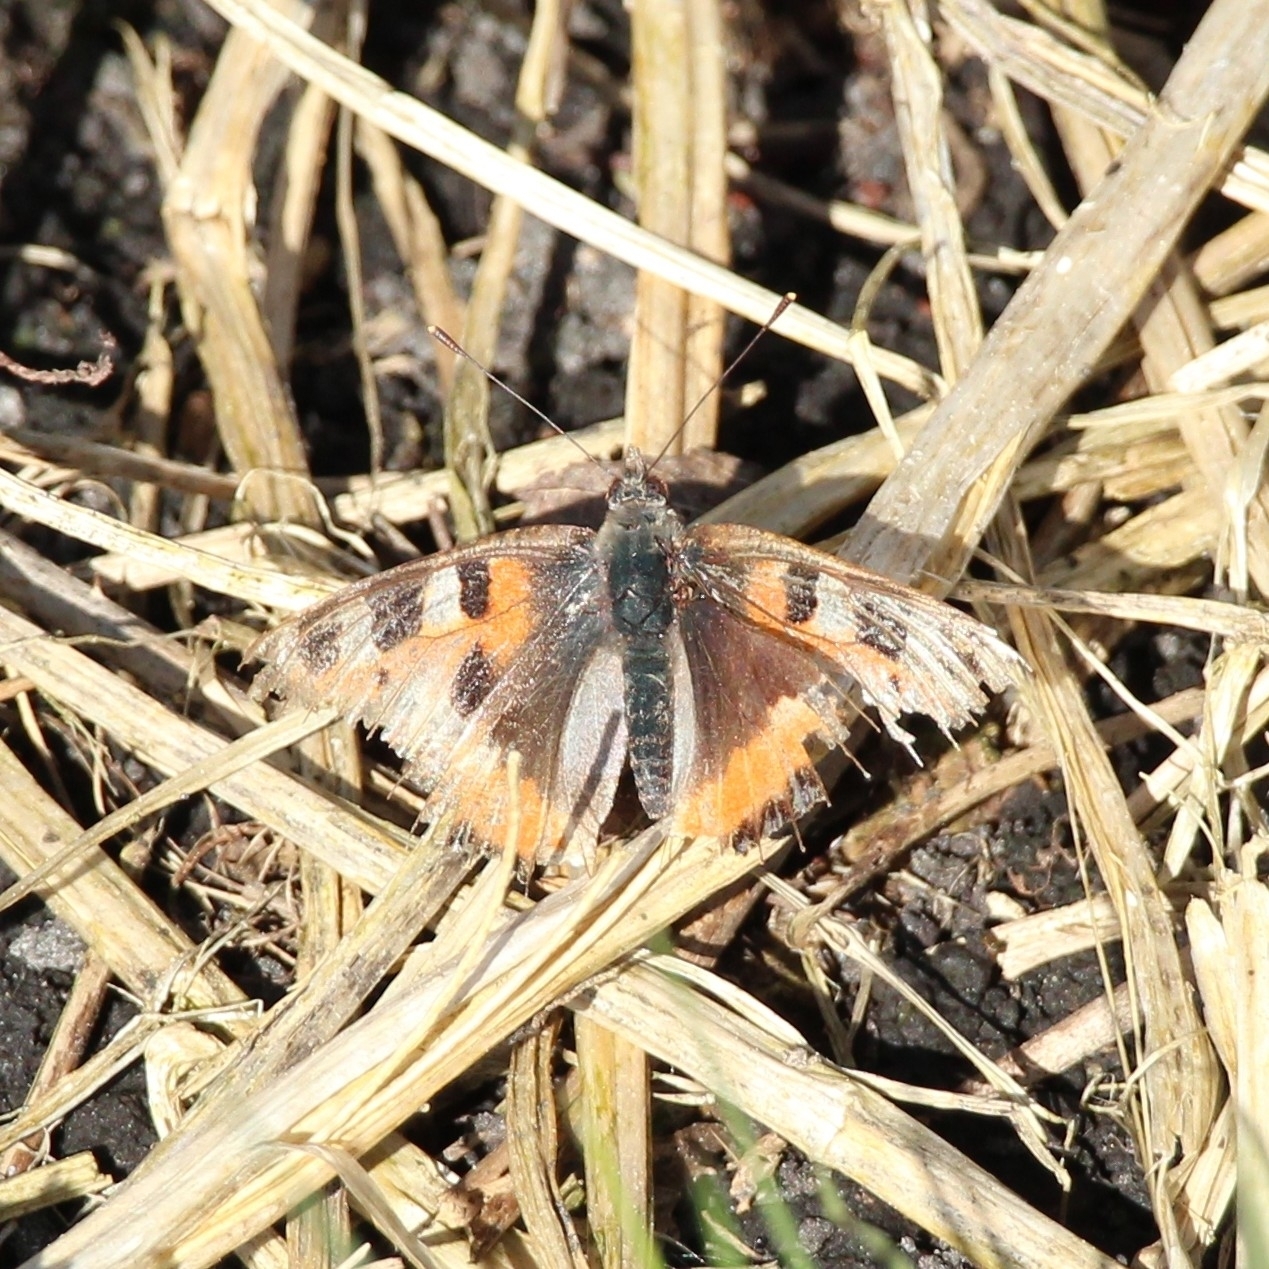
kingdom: Animalia
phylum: Arthropoda
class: Insecta
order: Lepidoptera
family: Nymphalidae
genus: Aglais
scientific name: Aglais urticae
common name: Small tortoiseshell
